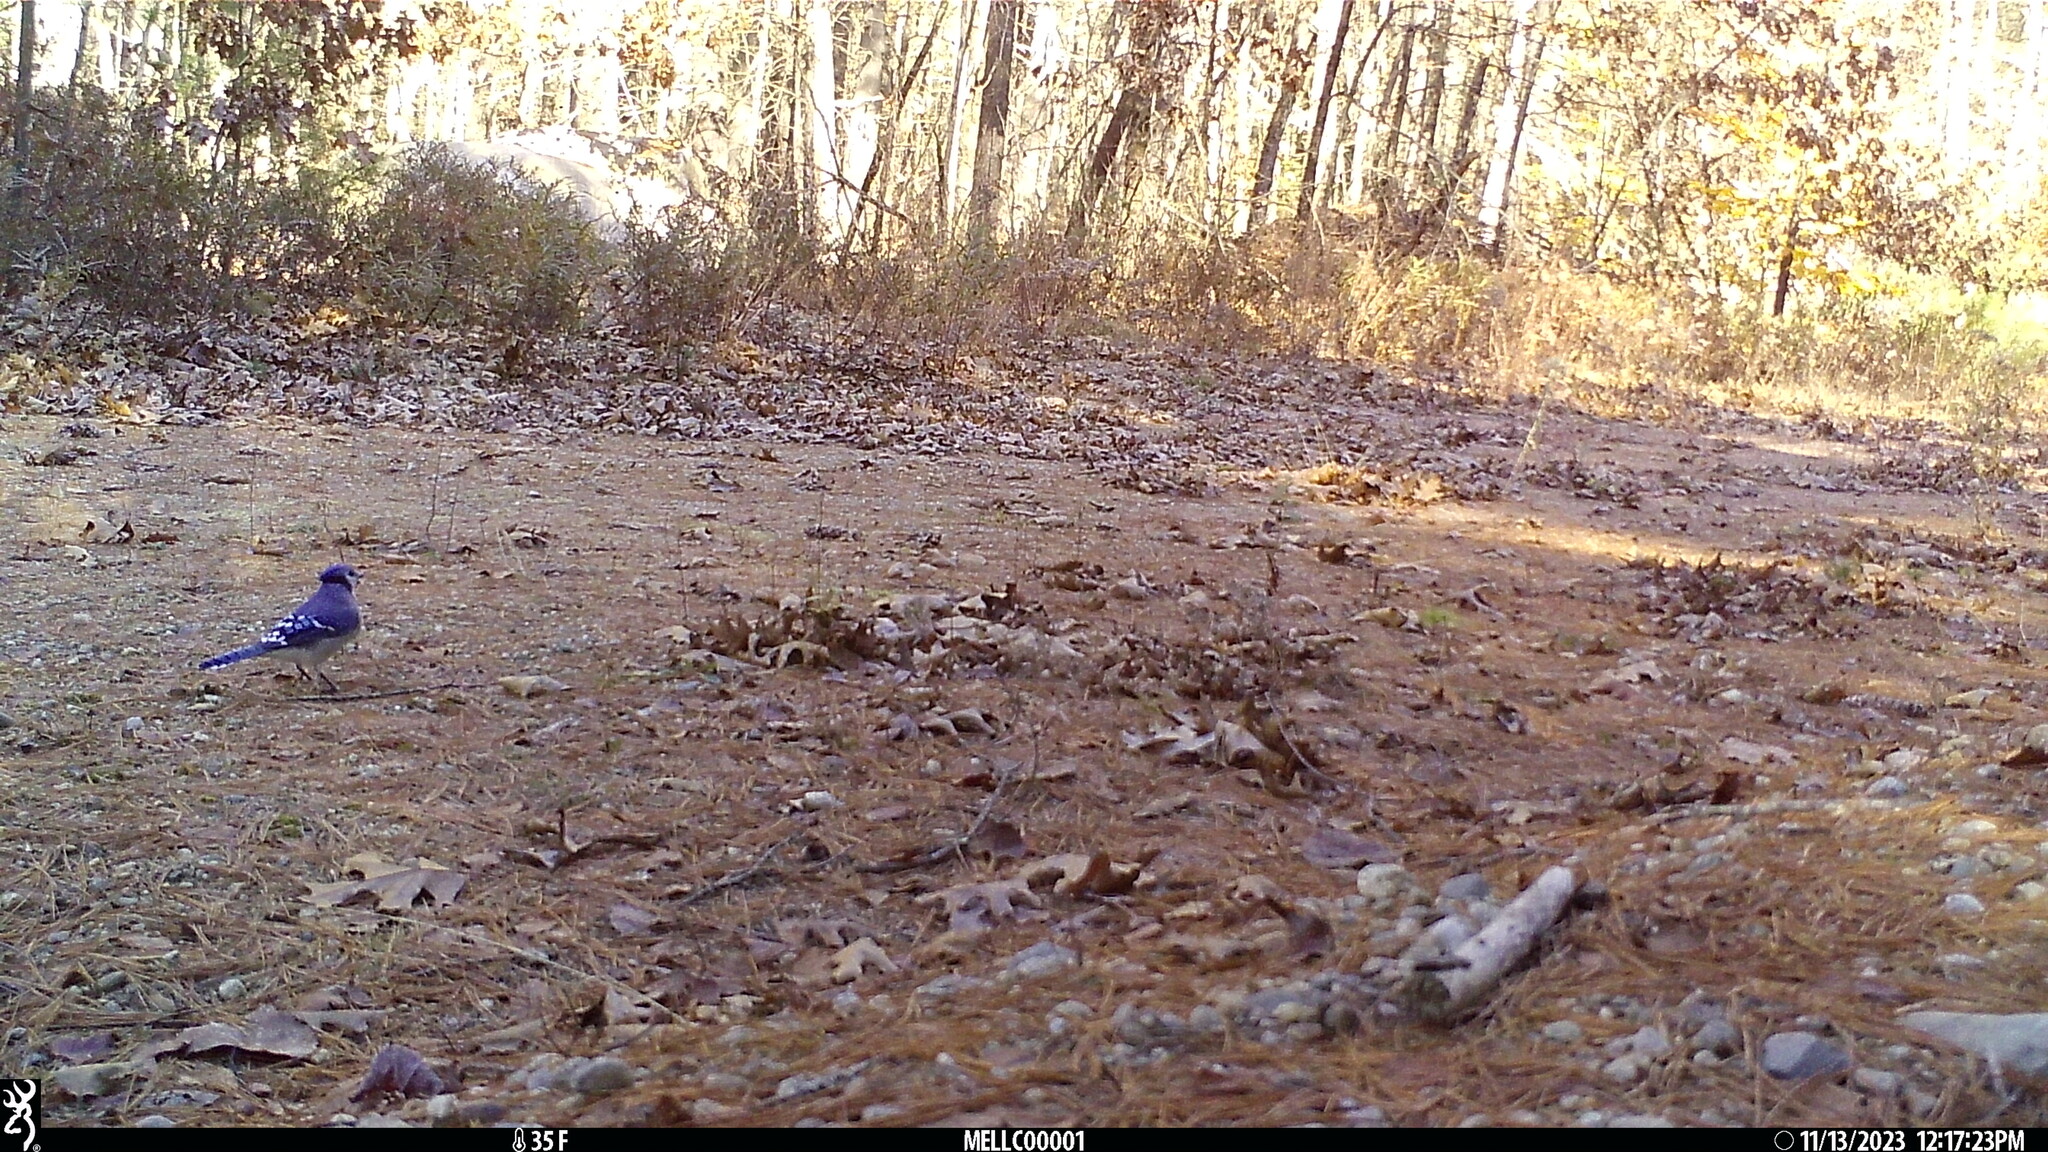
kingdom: Animalia
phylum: Chordata
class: Aves
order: Passeriformes
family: Corvidae
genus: Cyanocitta
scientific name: Cyanocitta cristata
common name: Blue jay
